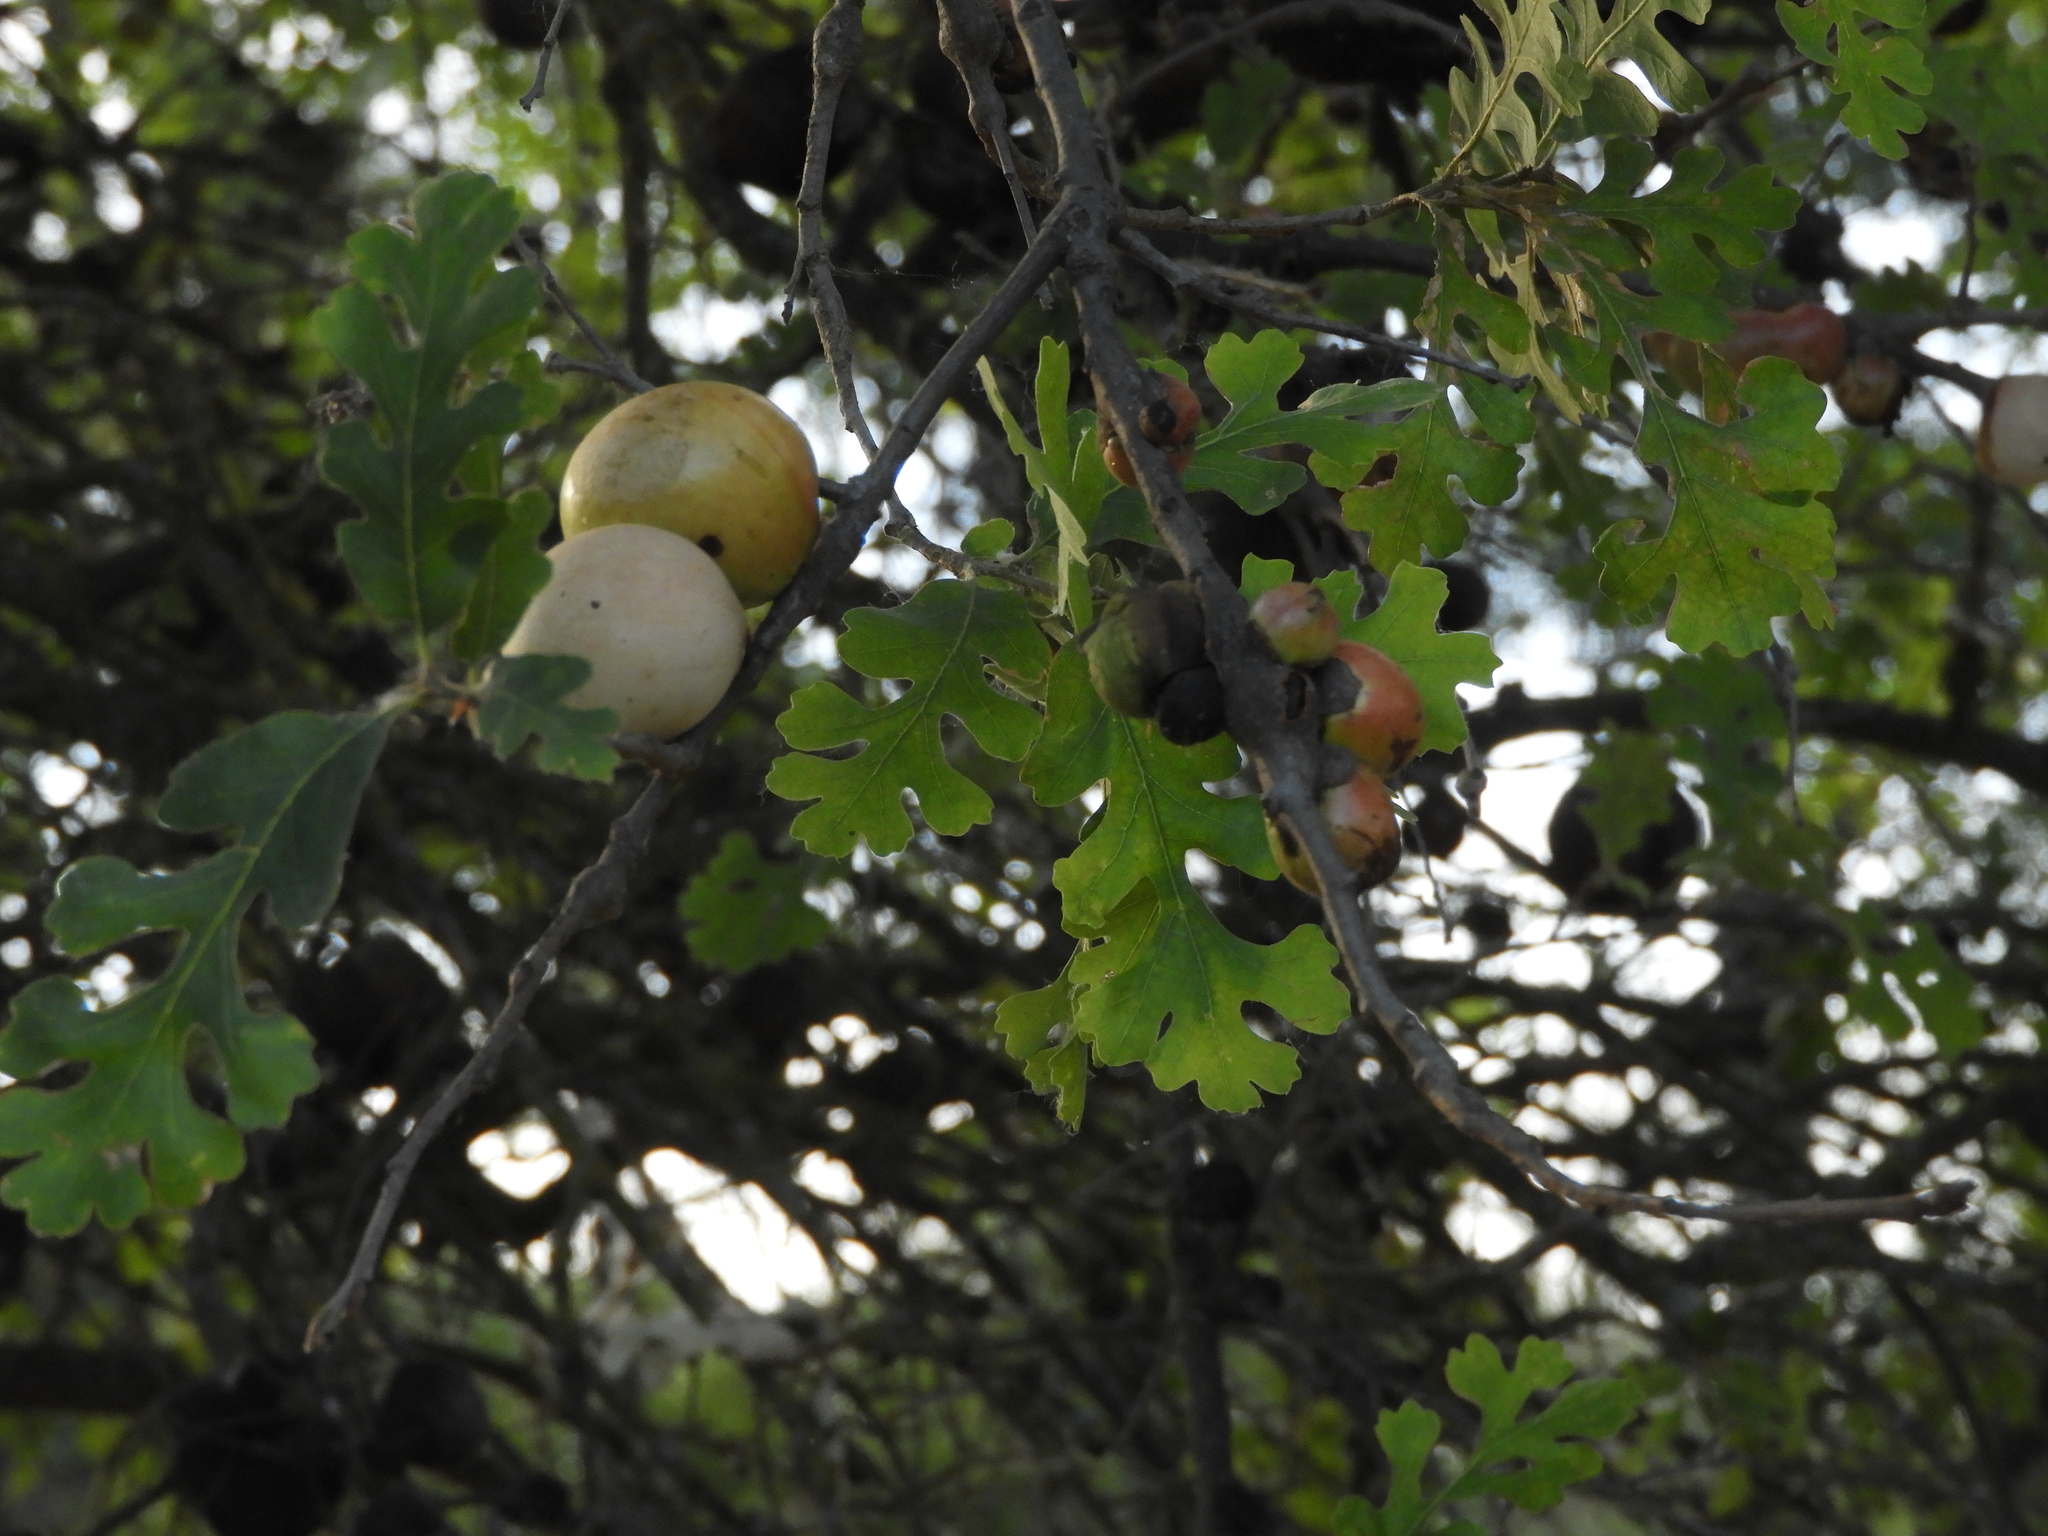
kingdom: Animalia
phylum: Arthropoda
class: Insecta
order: Hymenoptera
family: Cynipidae
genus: Andricus
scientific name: Andricus quercuscalifornicus
